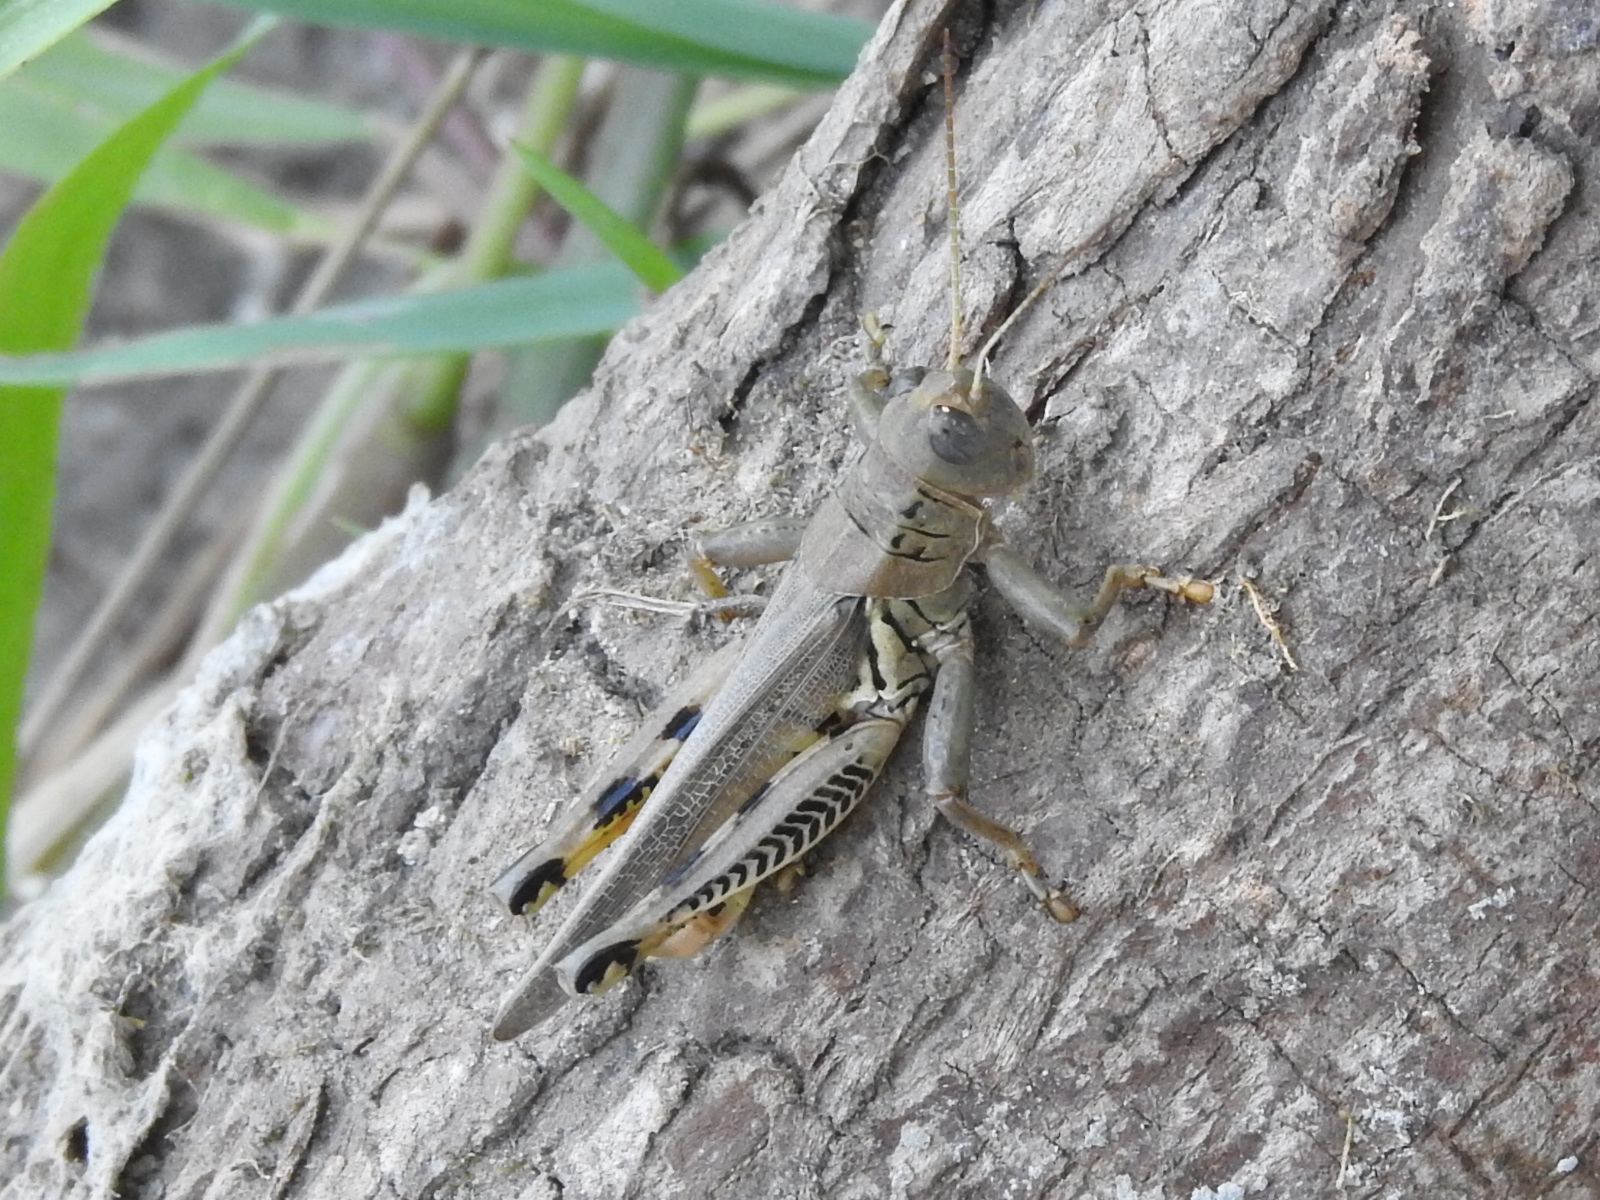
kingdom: Animalia
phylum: Arthropoda
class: Insecta
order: Orthoptera
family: Acrididae
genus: Melanoplus
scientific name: Melanoplus differentialis
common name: Differential grasshopper
